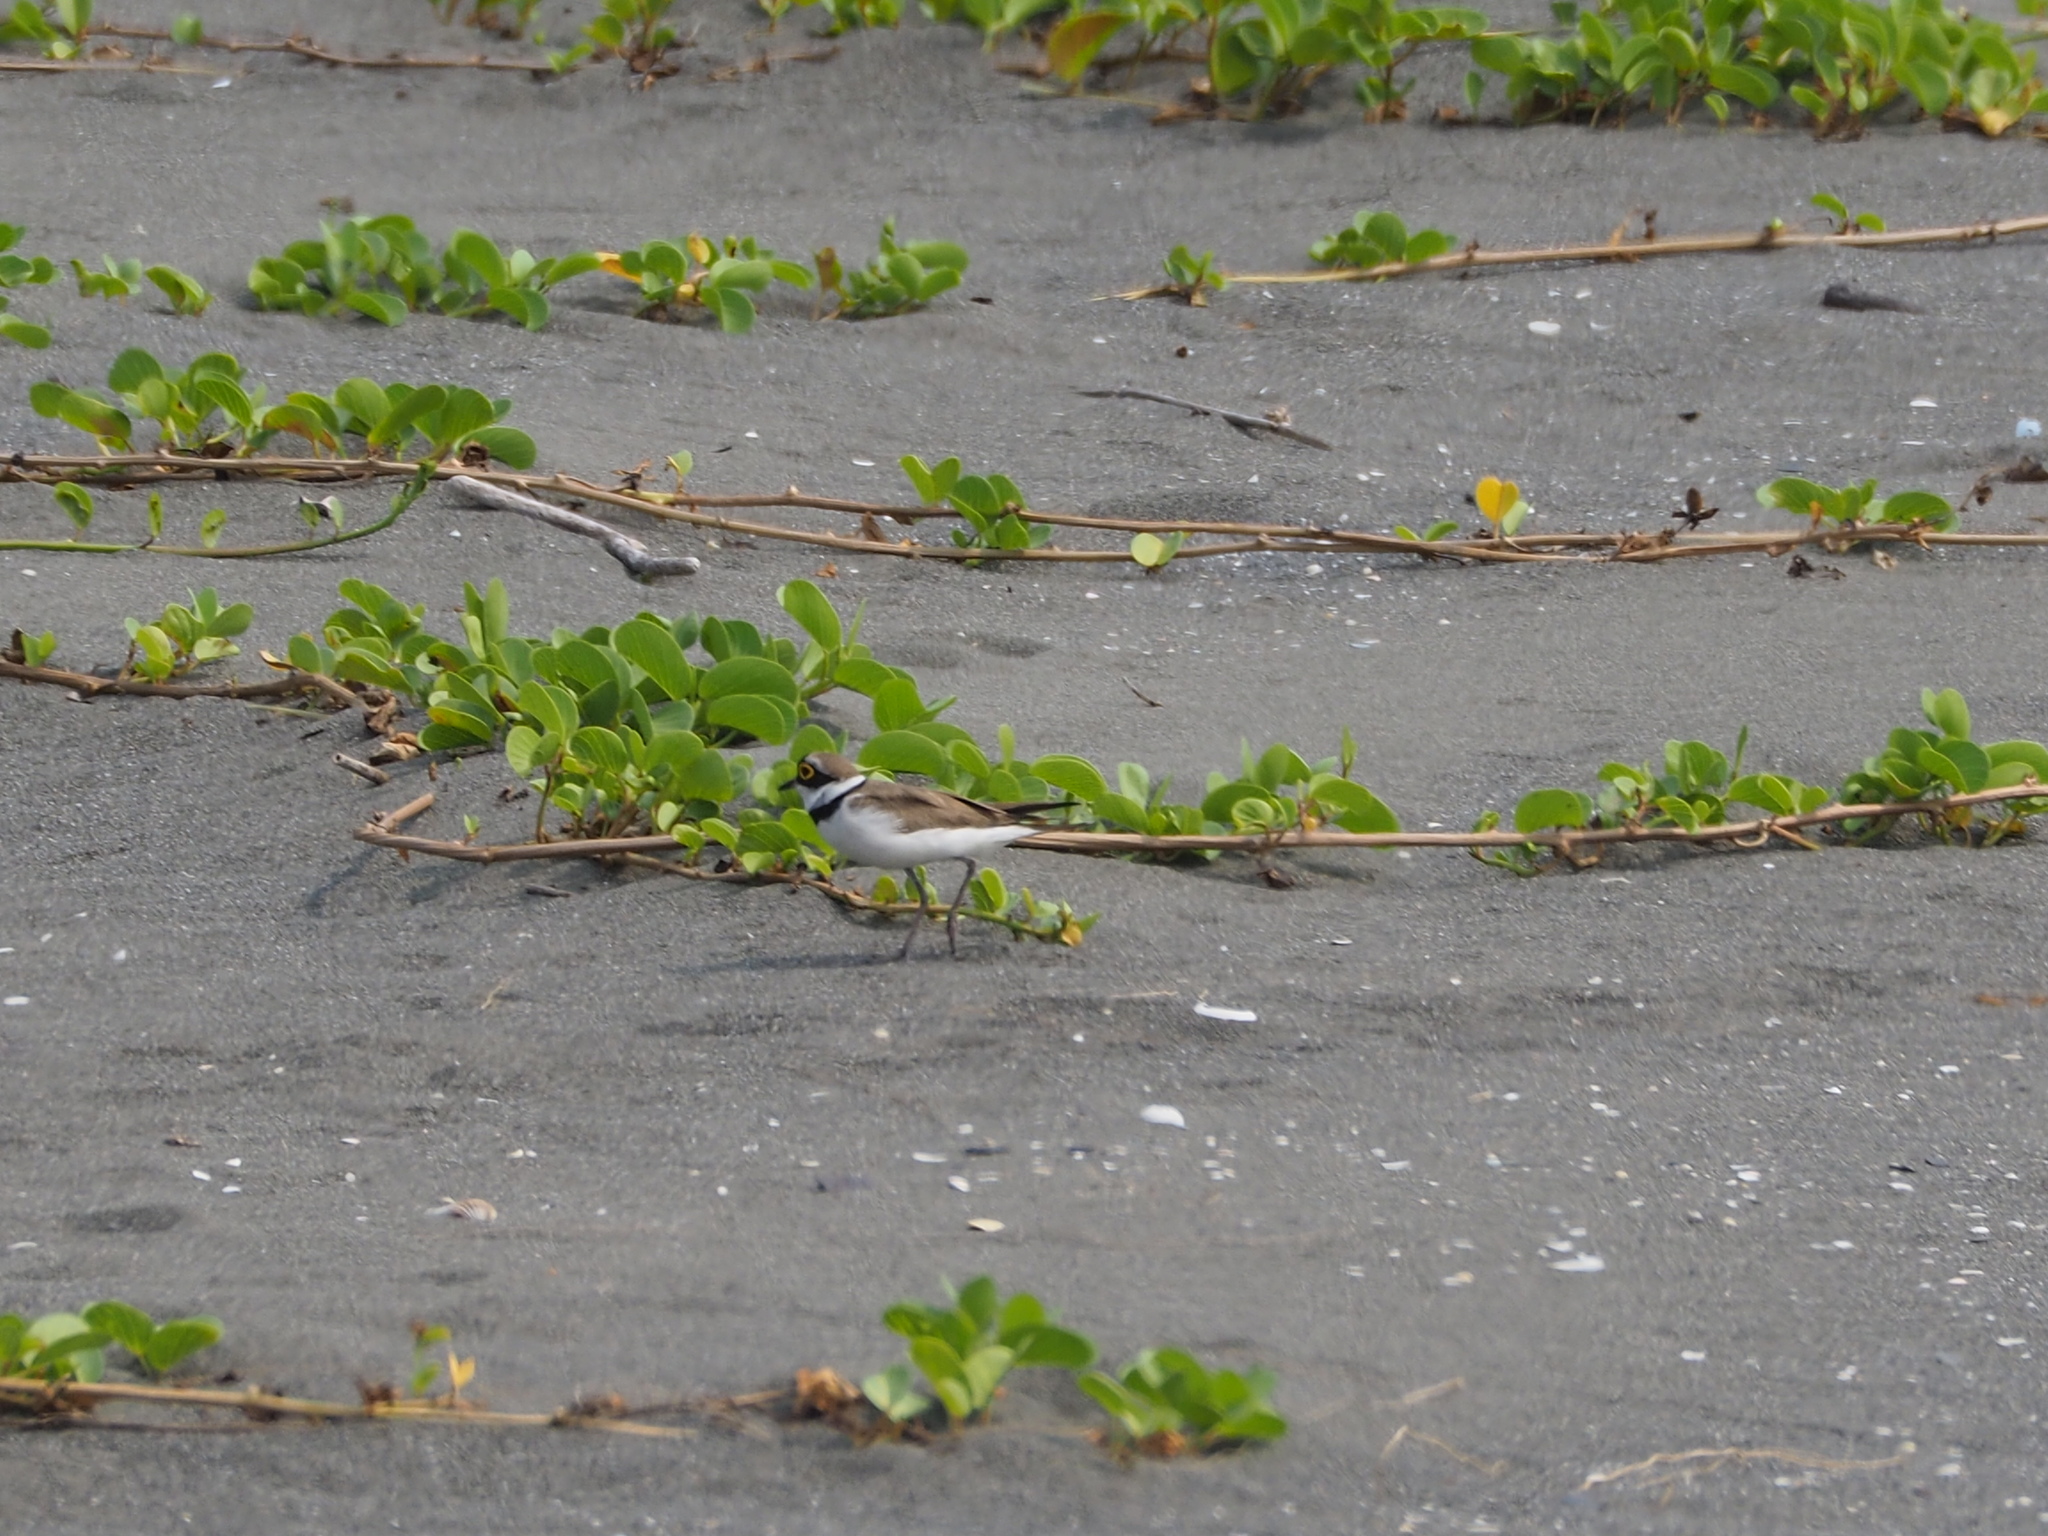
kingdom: Animalia
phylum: Chordata
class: Aves
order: Charadriiformes
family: Charadriidae
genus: Charadrius
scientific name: Charadrius dubius
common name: Little ringed plover
